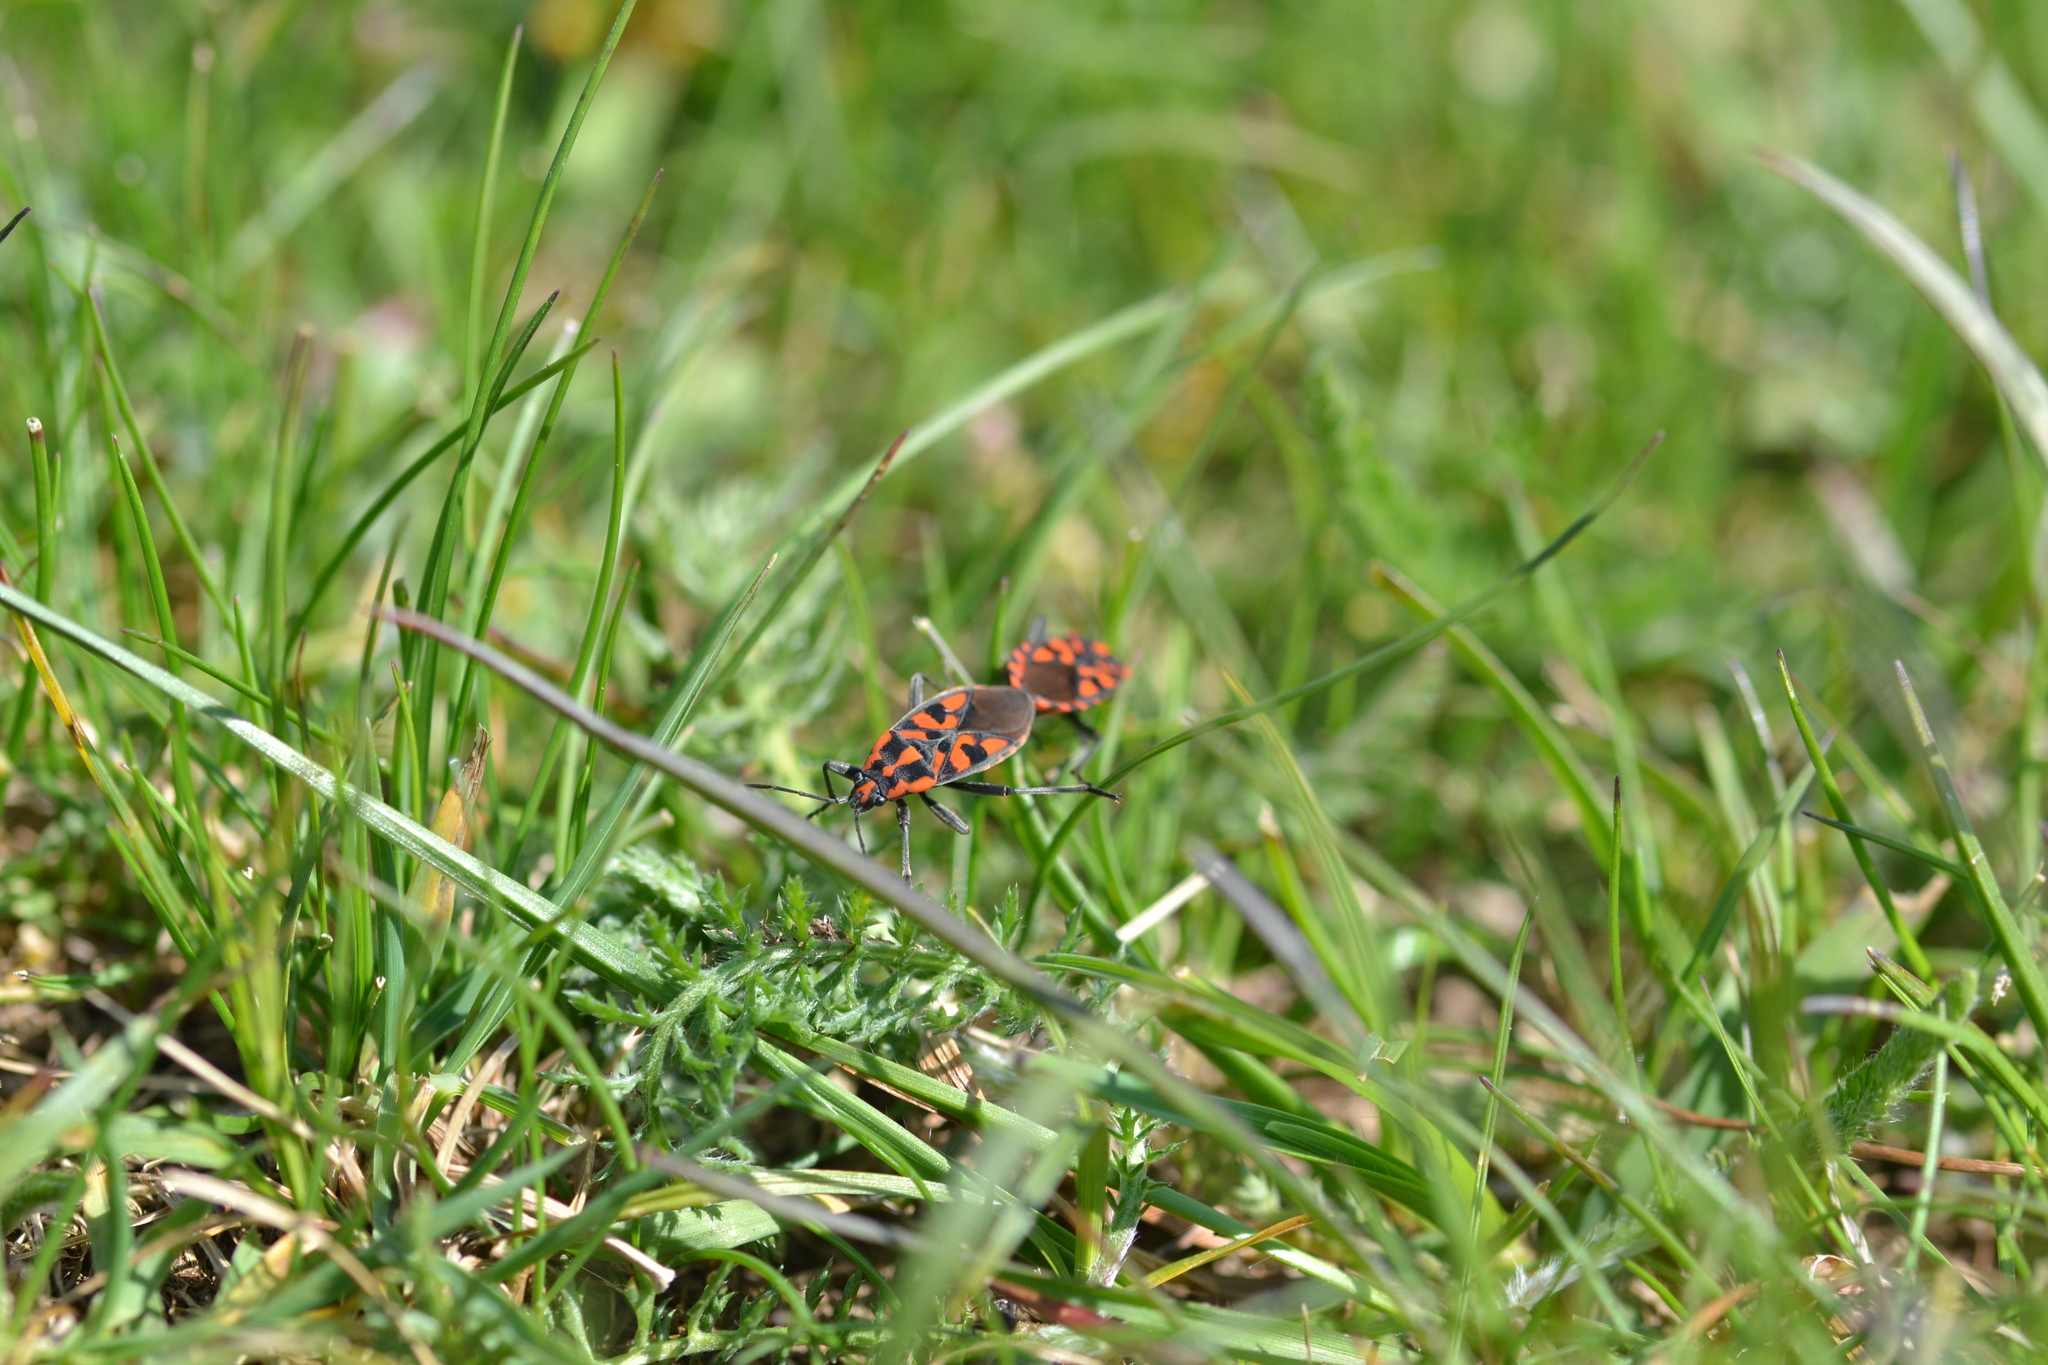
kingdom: Animalia
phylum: Arthropoda
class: Insecta
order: Hemiptera
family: Lygaeidae
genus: Spilostethus
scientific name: Spilostethus saxatilis
